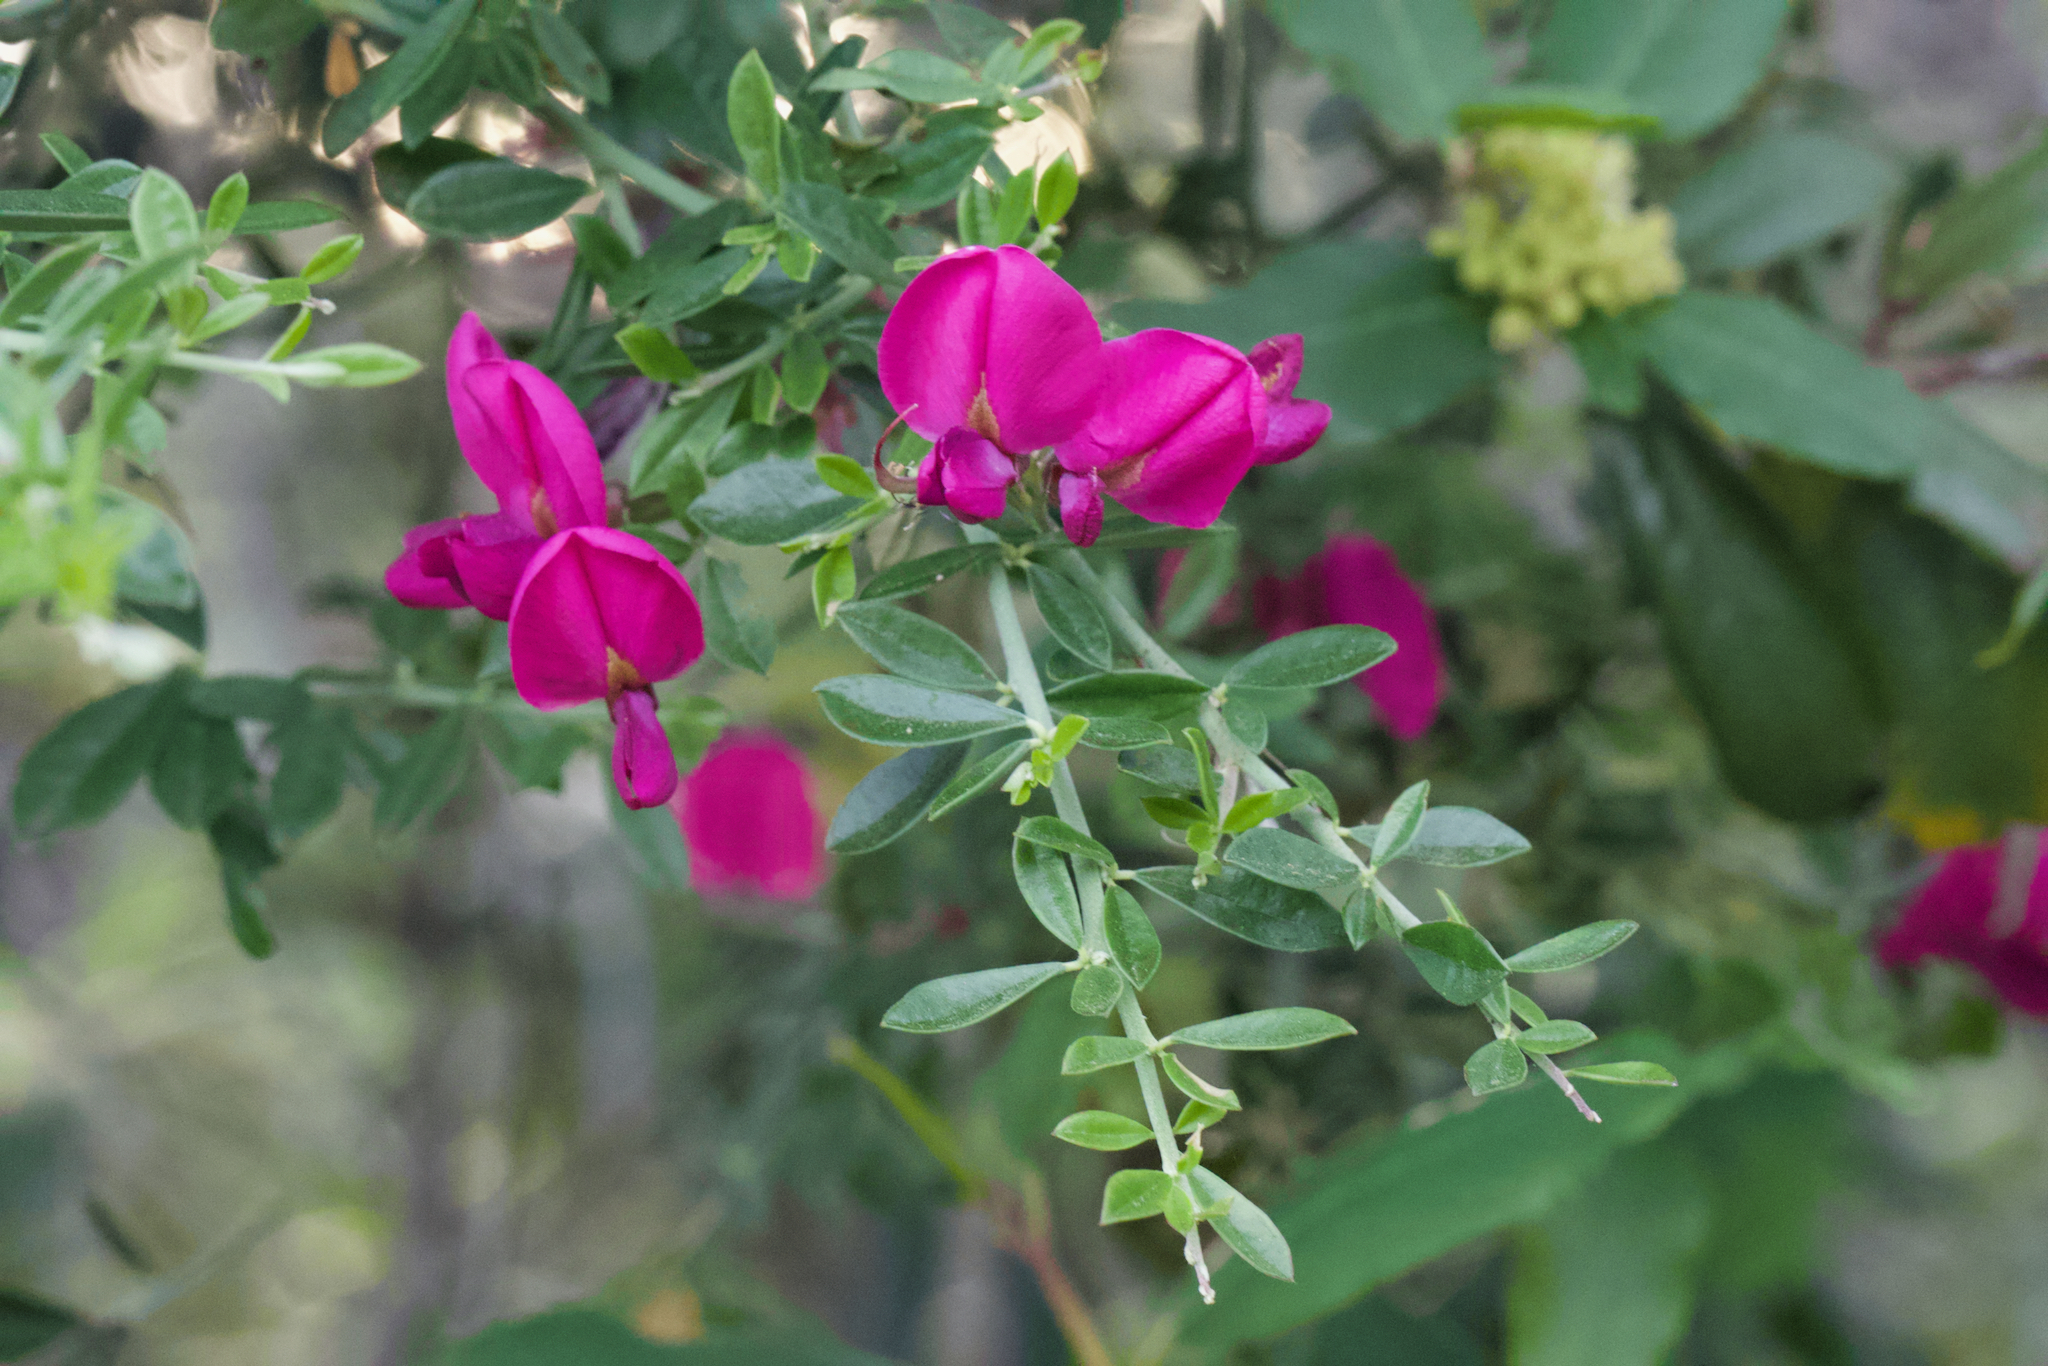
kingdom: Plantae
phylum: Tracheophyta
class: Magnoliopsida
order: Fabales
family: Fabaceae
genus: Pickeringia
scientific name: Pickeringia montana
